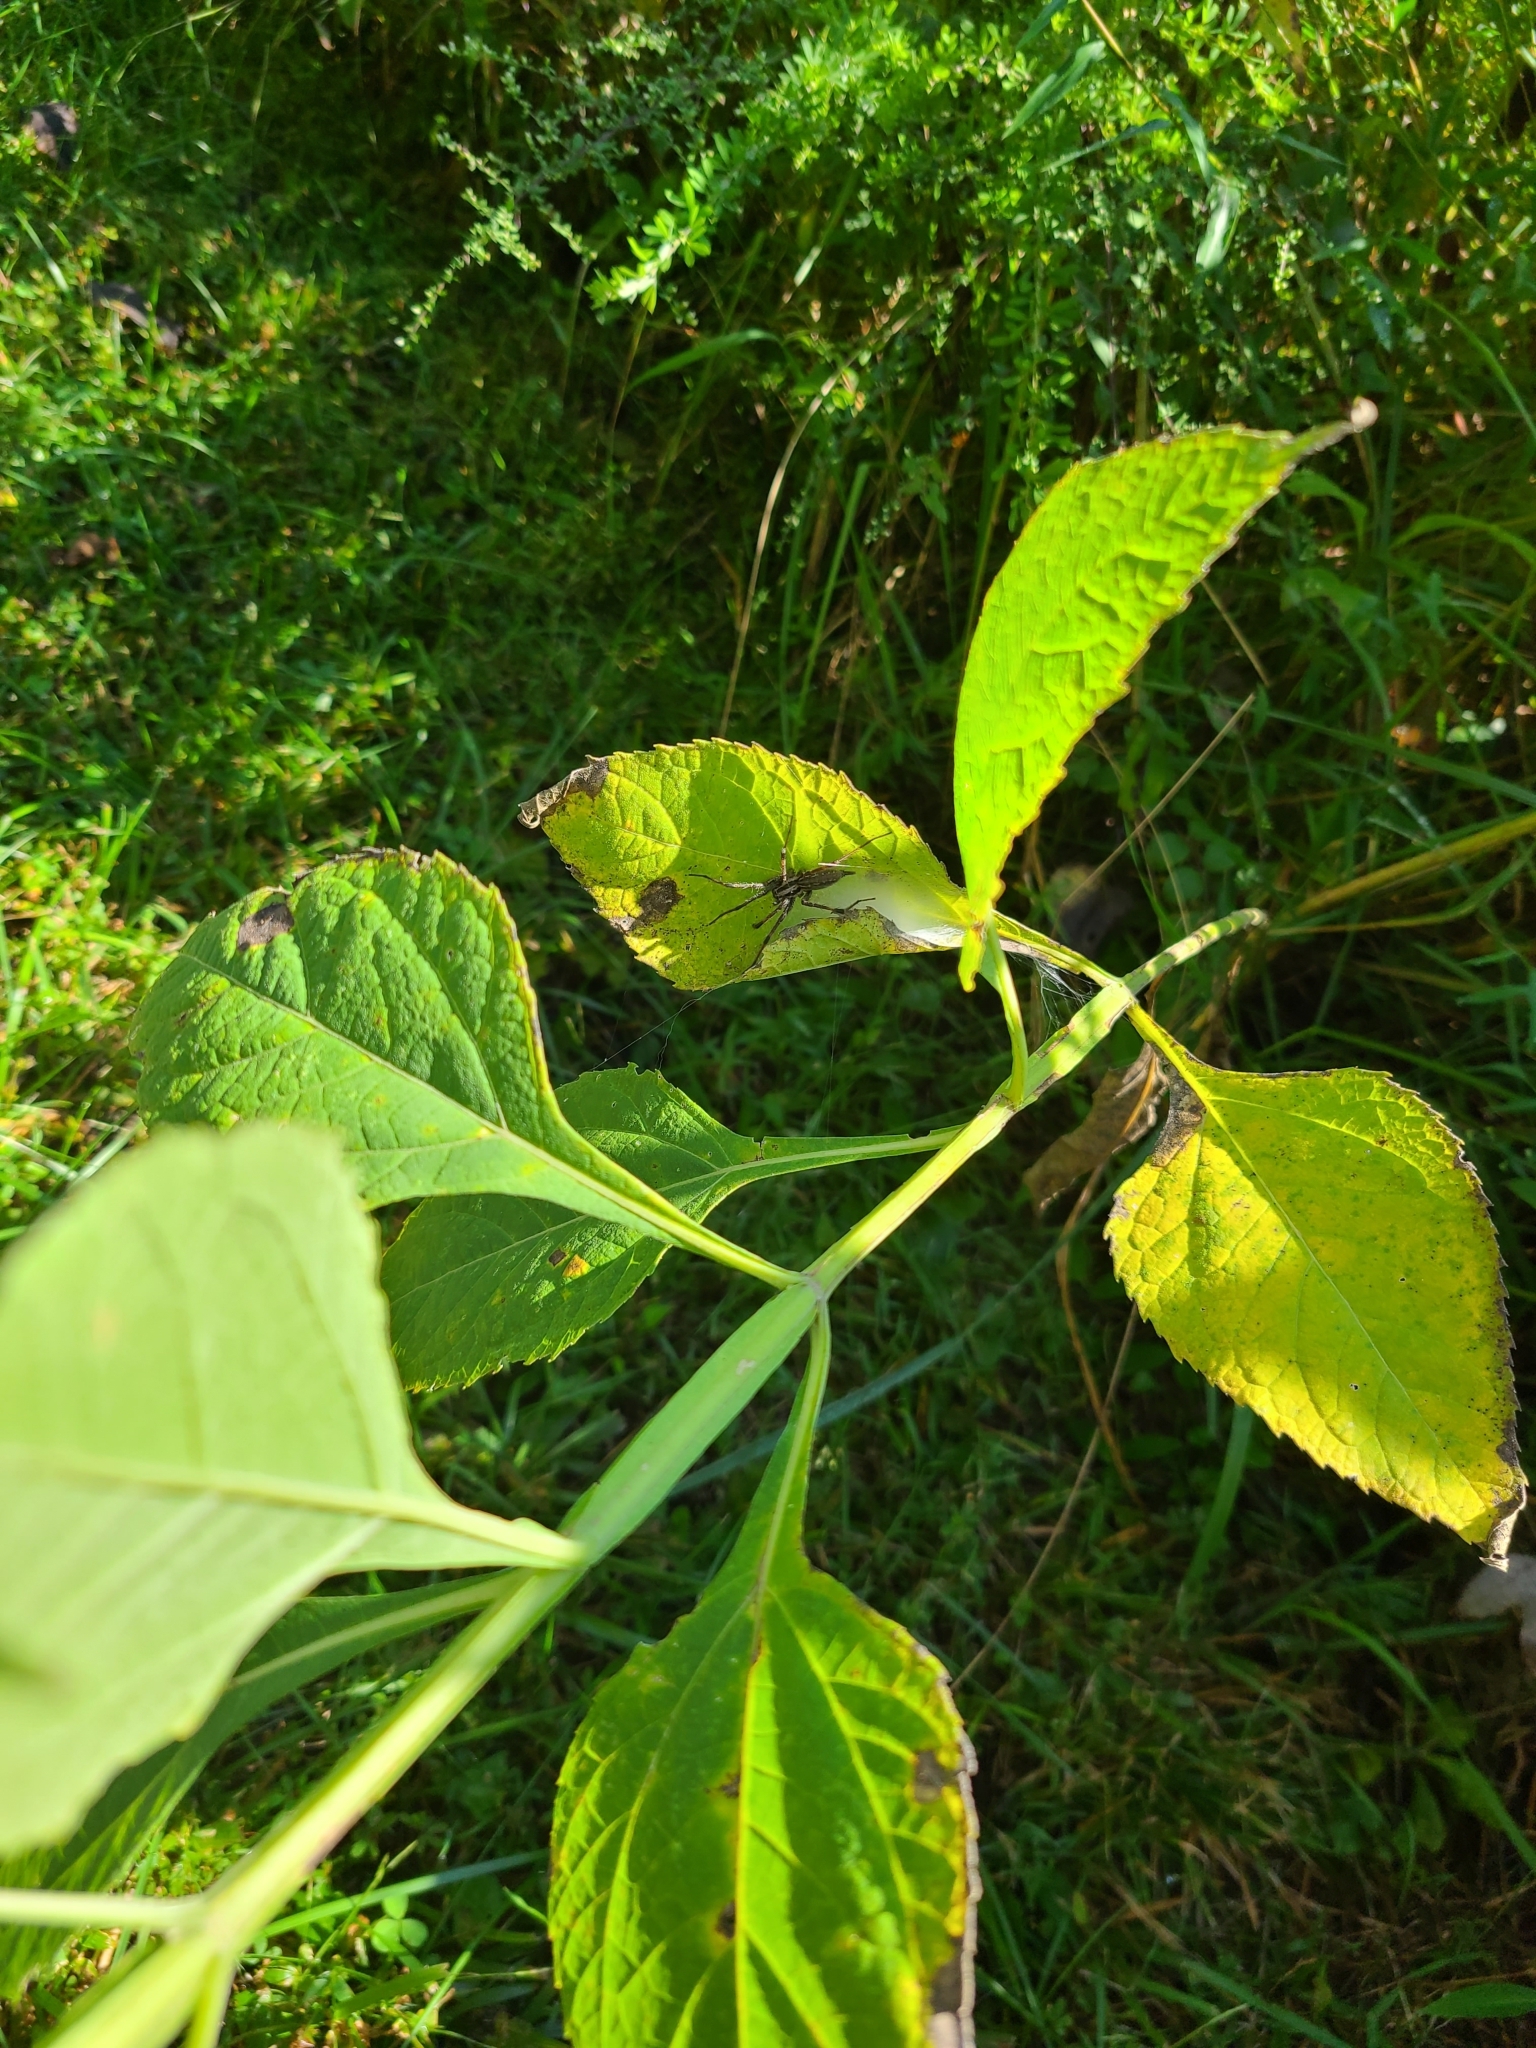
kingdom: Animalia
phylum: Arthropoda
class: Arachnida
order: Araneae
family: Agelenidae
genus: Agelenopsis
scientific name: Agelenopsis
